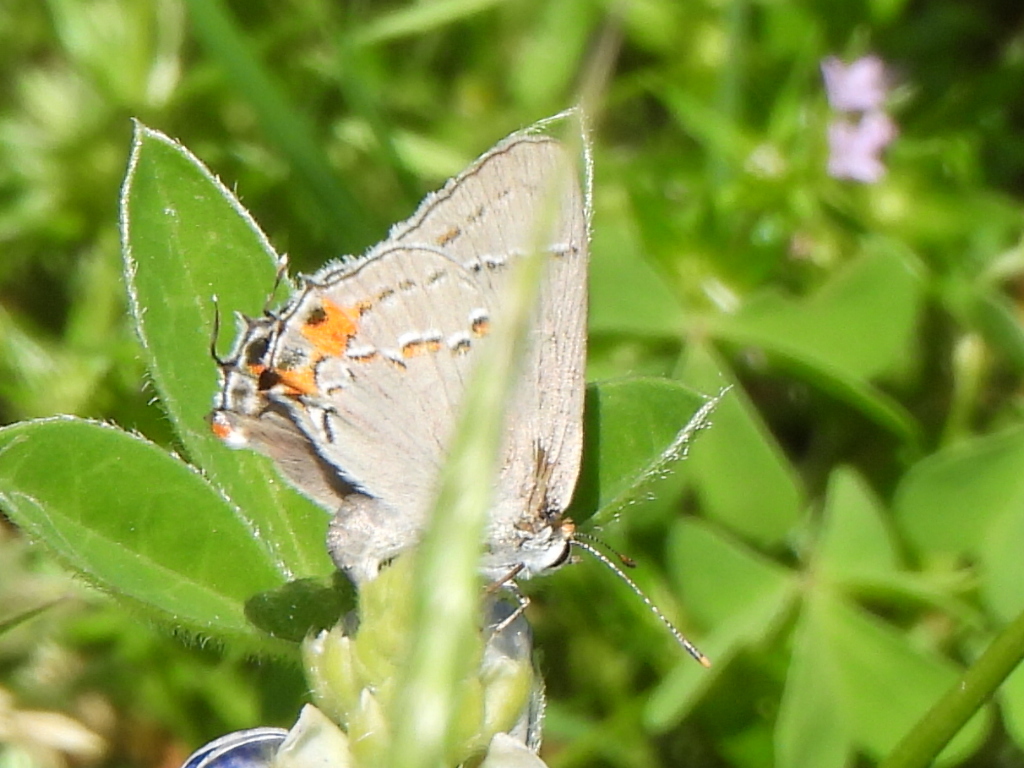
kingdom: Animalia
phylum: Arthropoda
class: Insecta
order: Lepidoptera
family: Lycaenidae
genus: Strymon
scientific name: Strymon melinus
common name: Gray hairstreak
